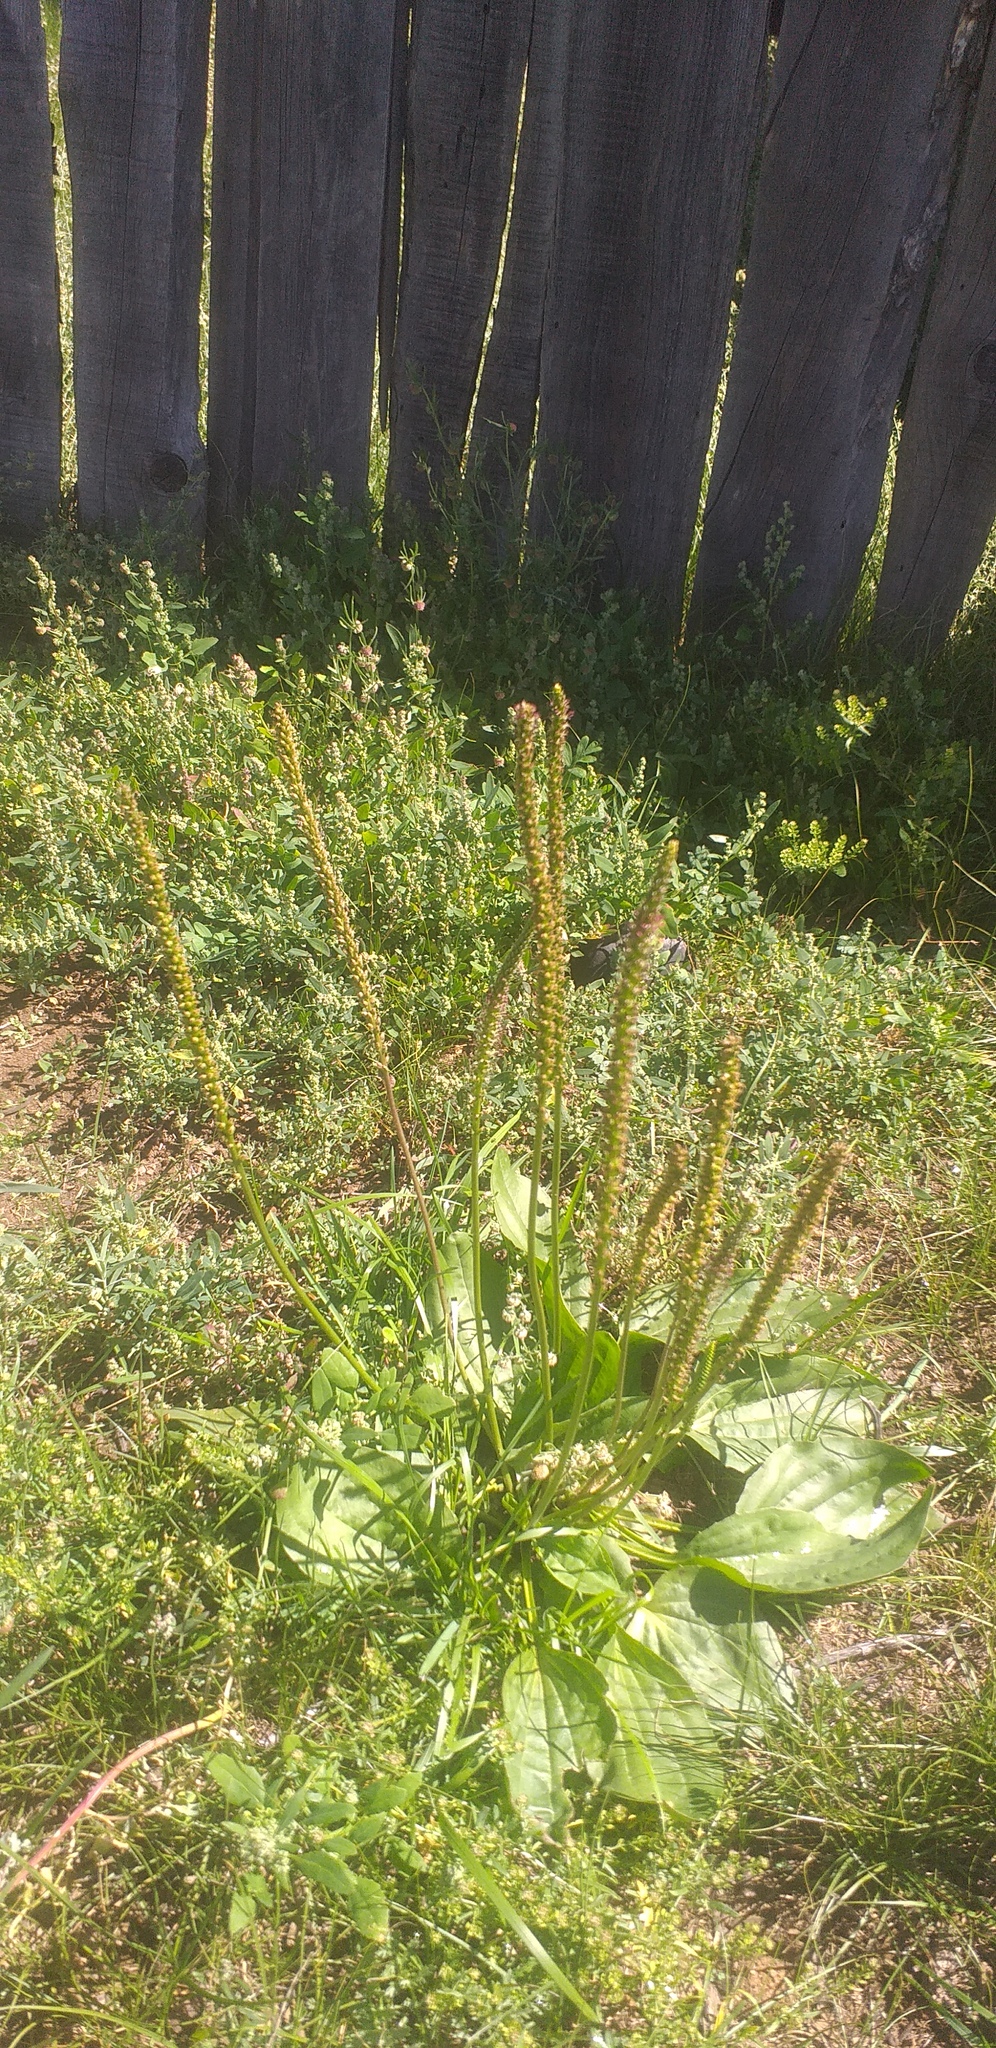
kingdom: Plantae
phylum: Tracheophyta
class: Magnoliopsida
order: Lamiales
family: Plantaginaceae
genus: Plantago
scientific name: Plantago urvillei
